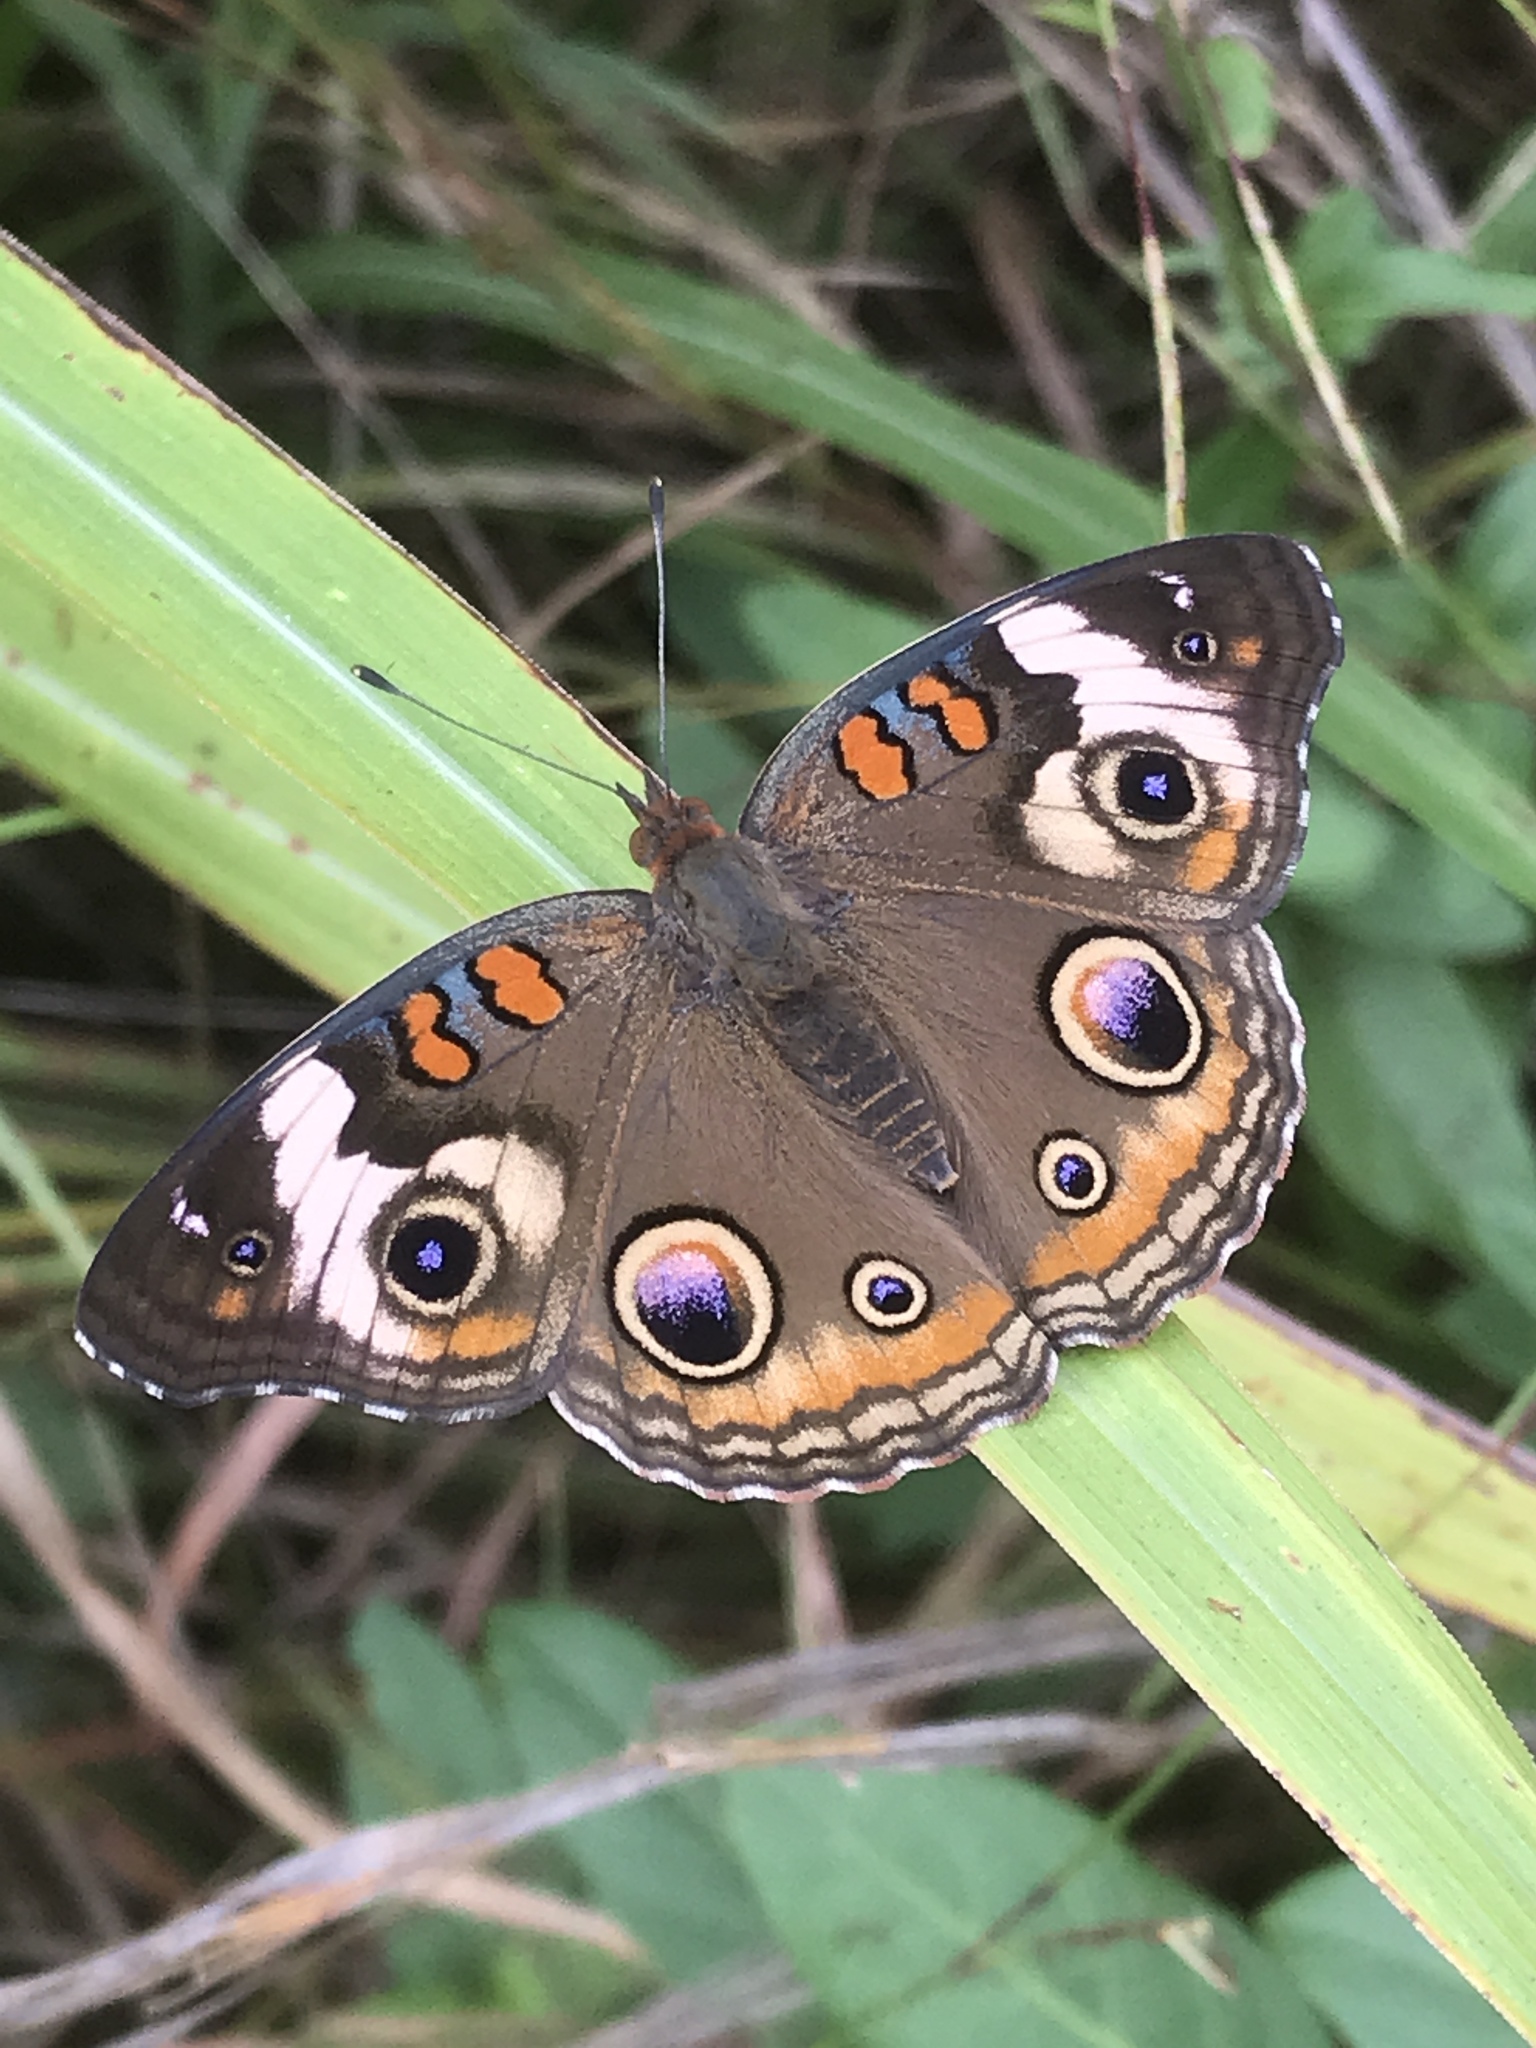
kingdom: Animalia
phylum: Arthropoda
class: Insecta
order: Lepidoptera
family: Nymphalidae
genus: Junonia
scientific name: Junonia coenia
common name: Common buckeye
